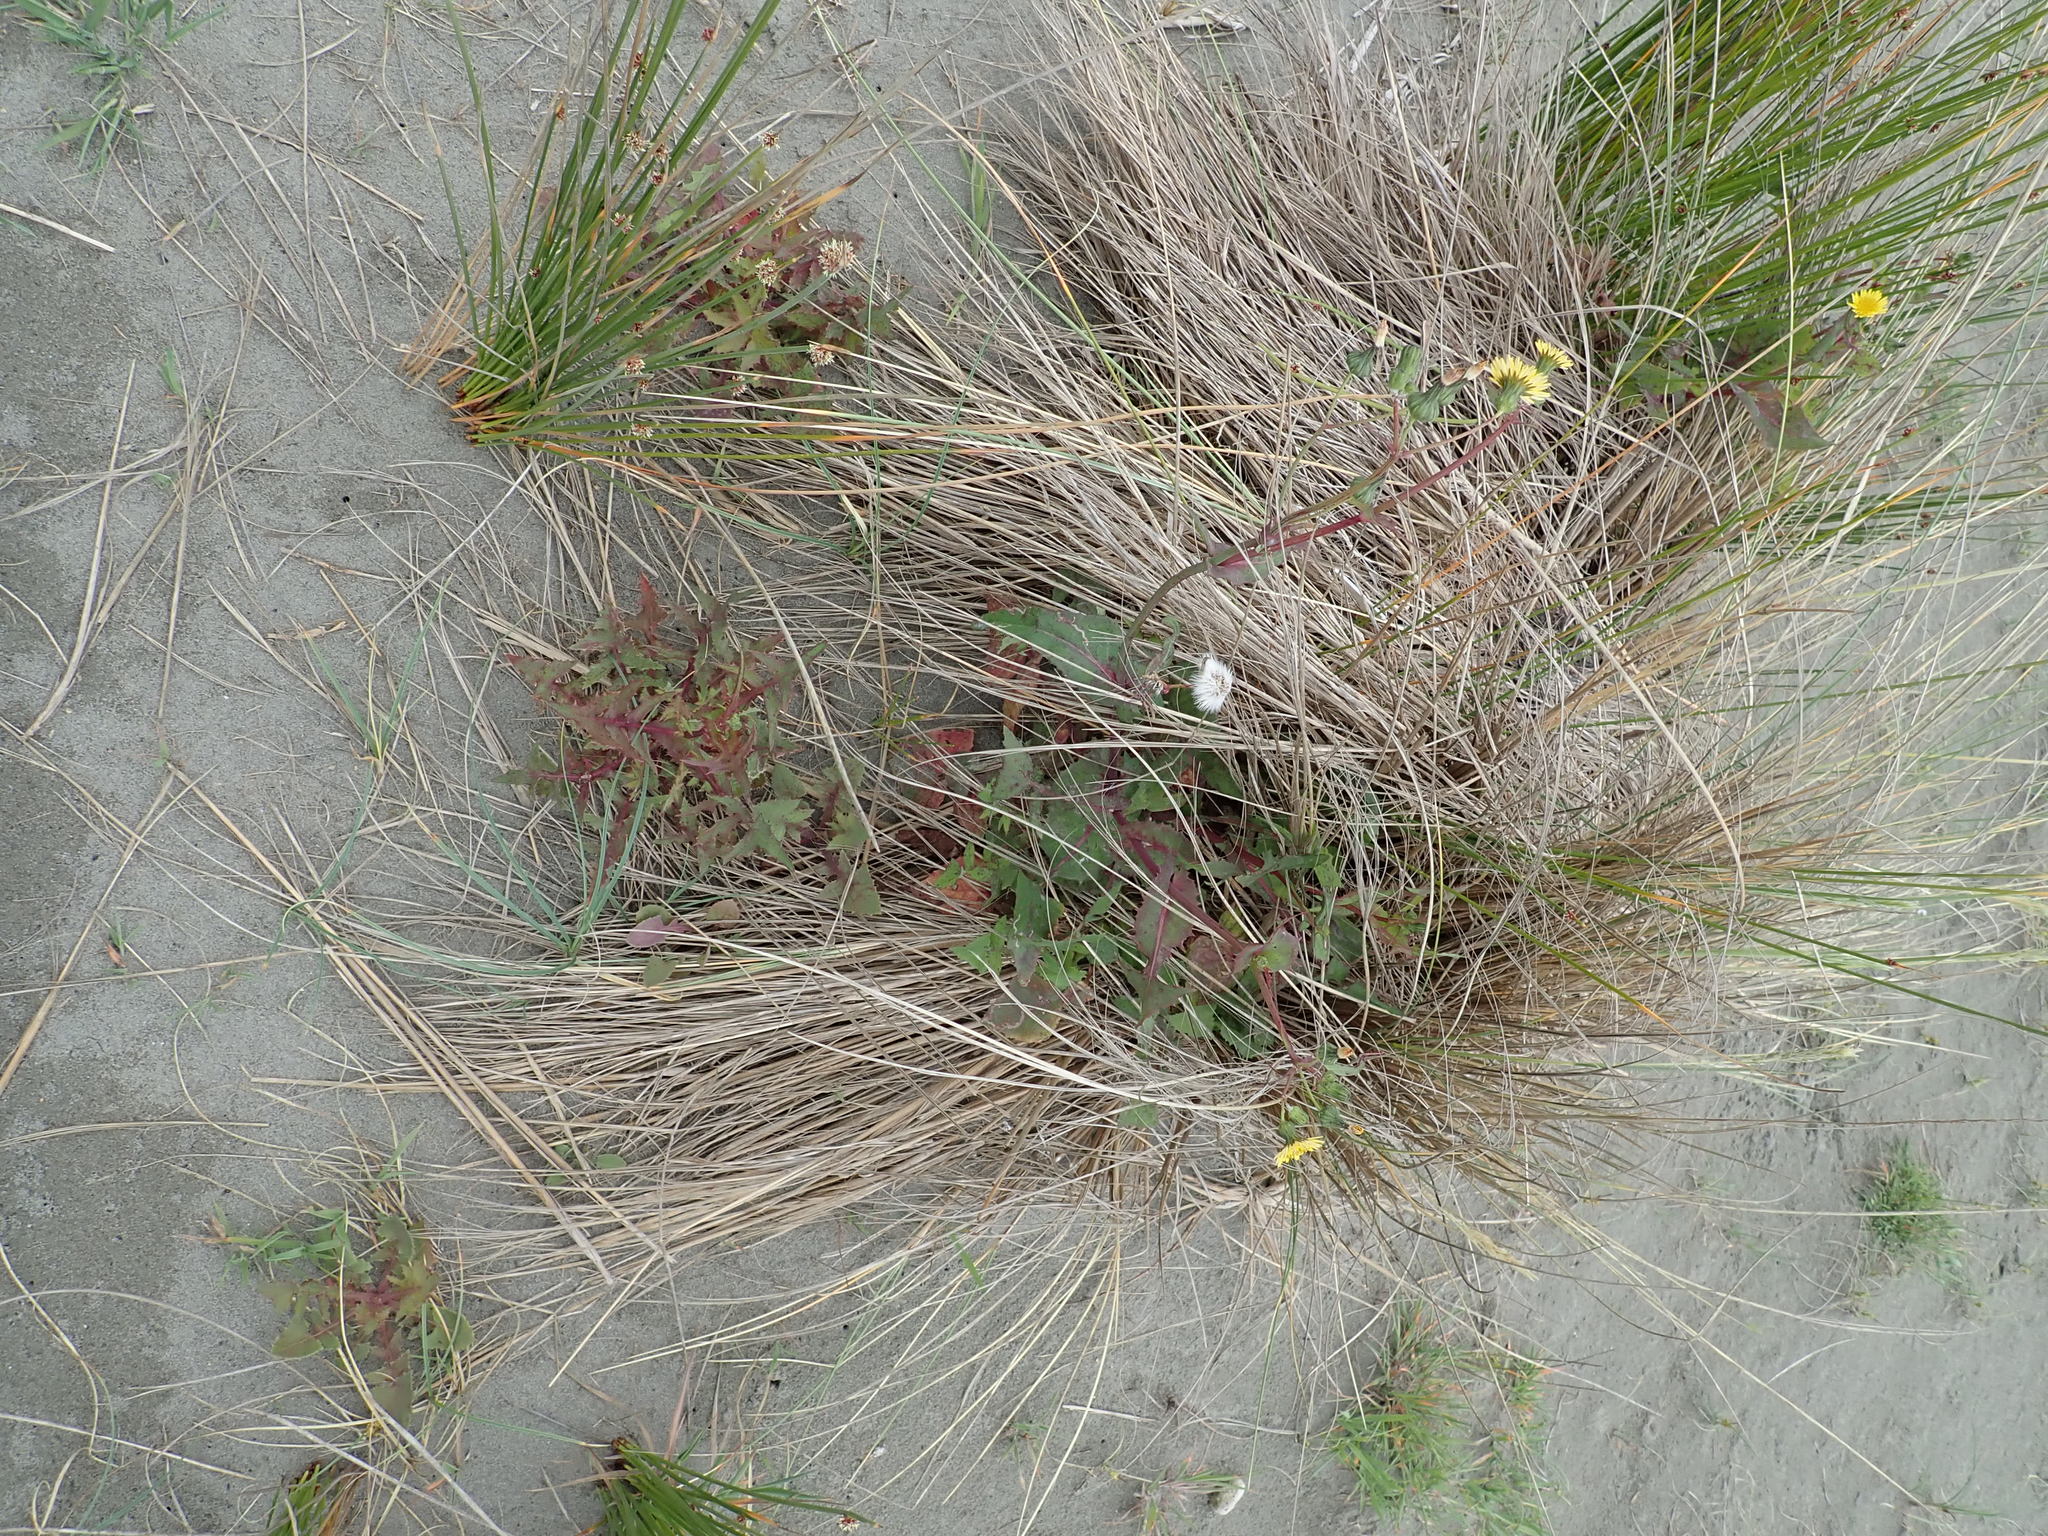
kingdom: Plantae
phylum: Tracheophyta
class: Magnoliopsida
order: Asterales
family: Asteraceae
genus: Sonchus
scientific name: Sonchus oleraceus
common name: Common sowthistle
